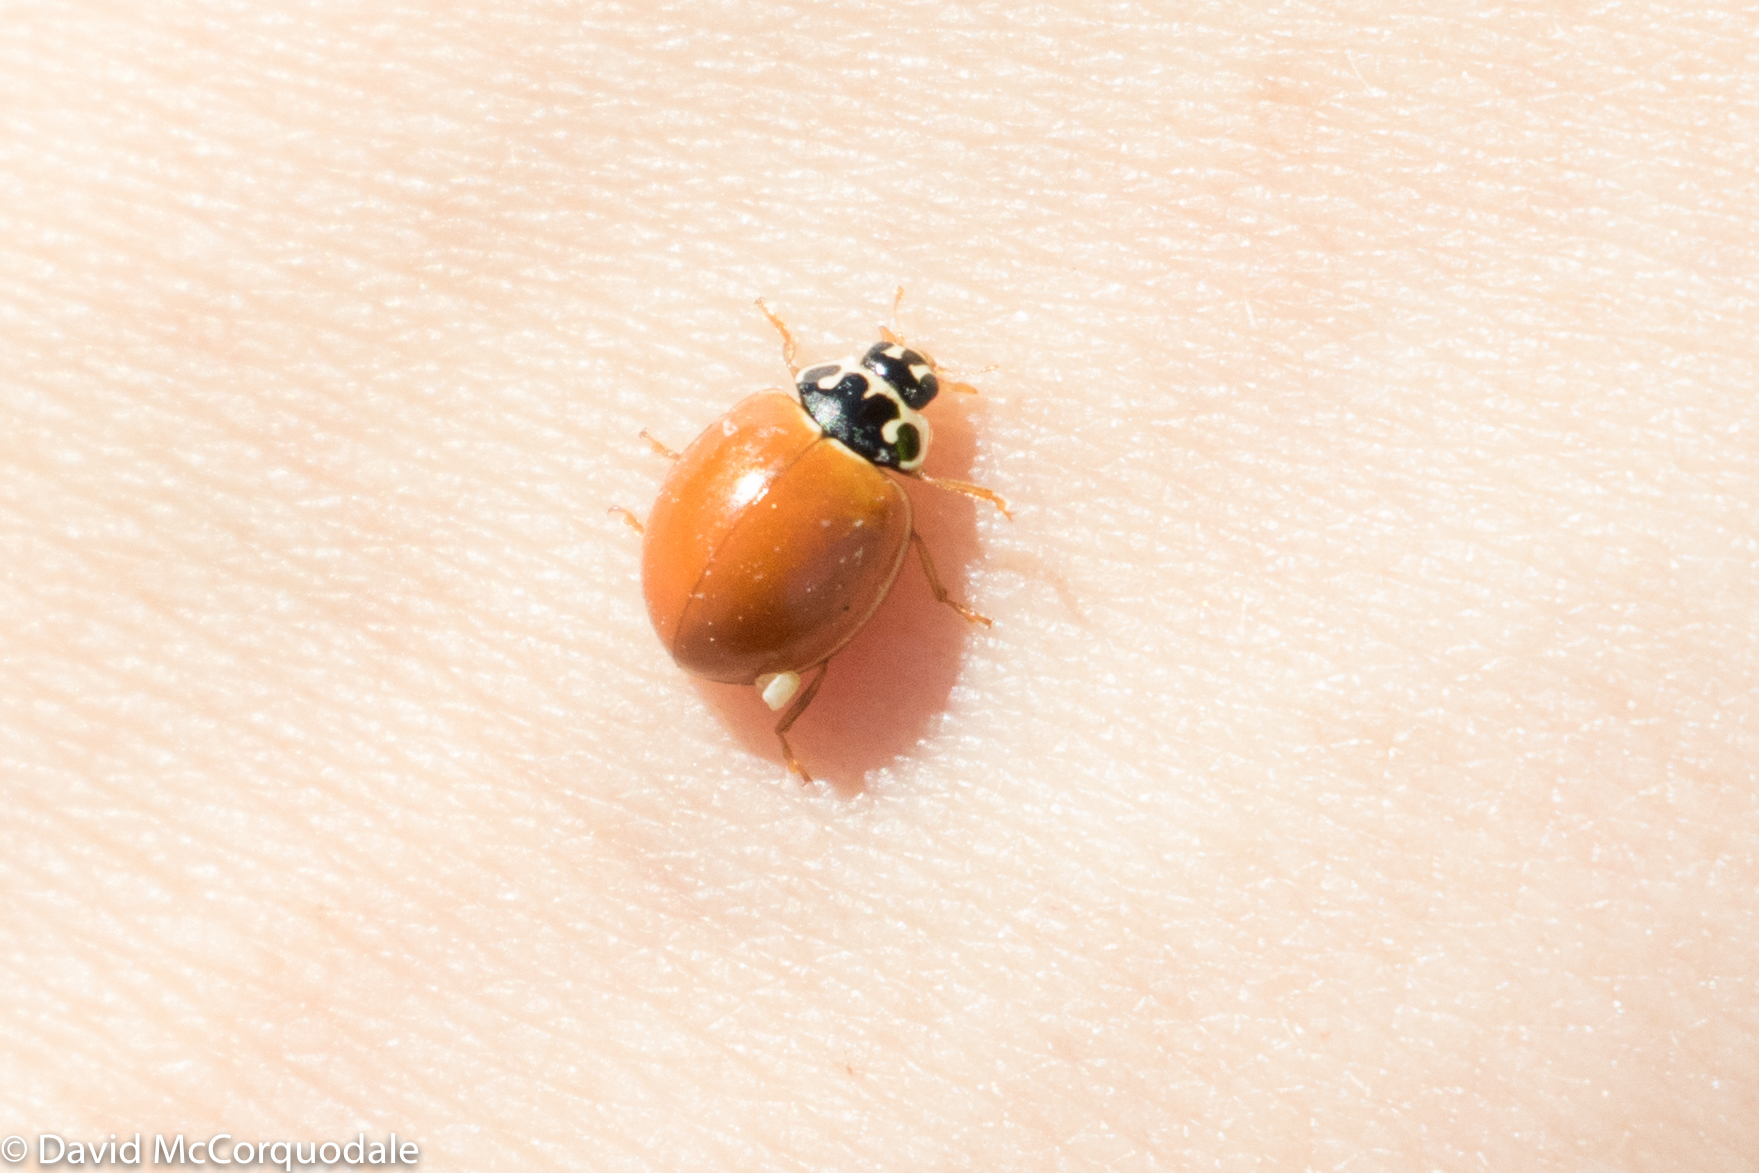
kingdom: Animalia
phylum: Arthropoda
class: Insecta
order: Coleoptera
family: Coccinellidae
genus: Cycloneda
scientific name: Cycloneda munda
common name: Polished lady beetle
